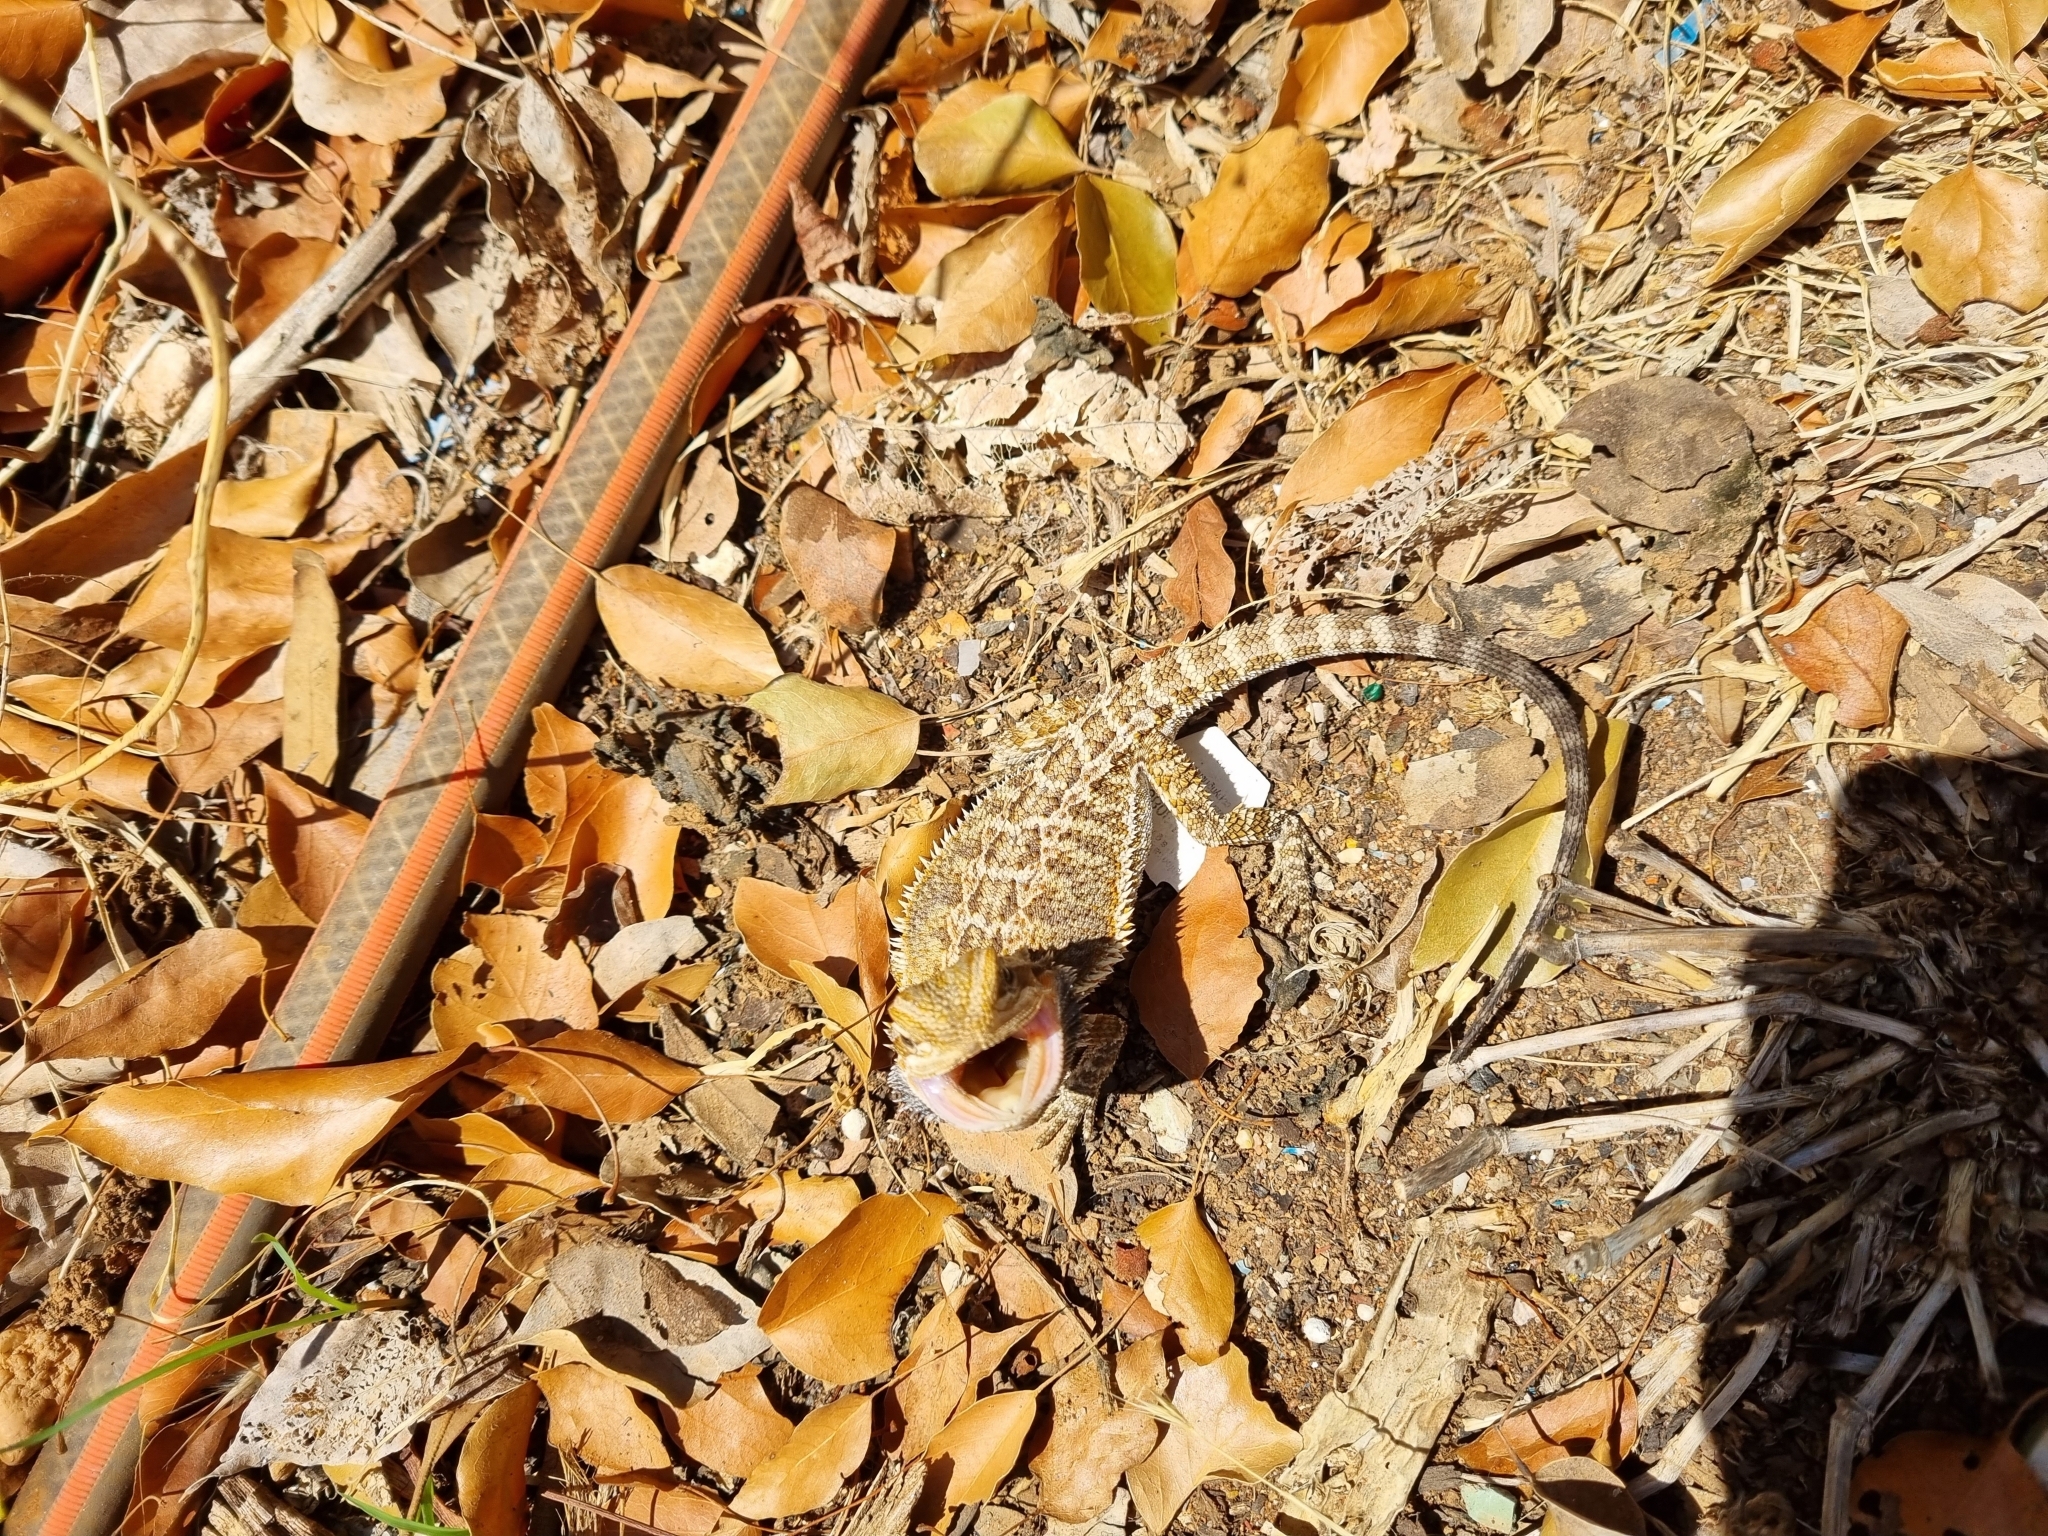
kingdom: Animalia
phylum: Chordata
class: Squamata
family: Agamidae
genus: Pogona
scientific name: Pogona vitticeps
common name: Central bearded dragon
